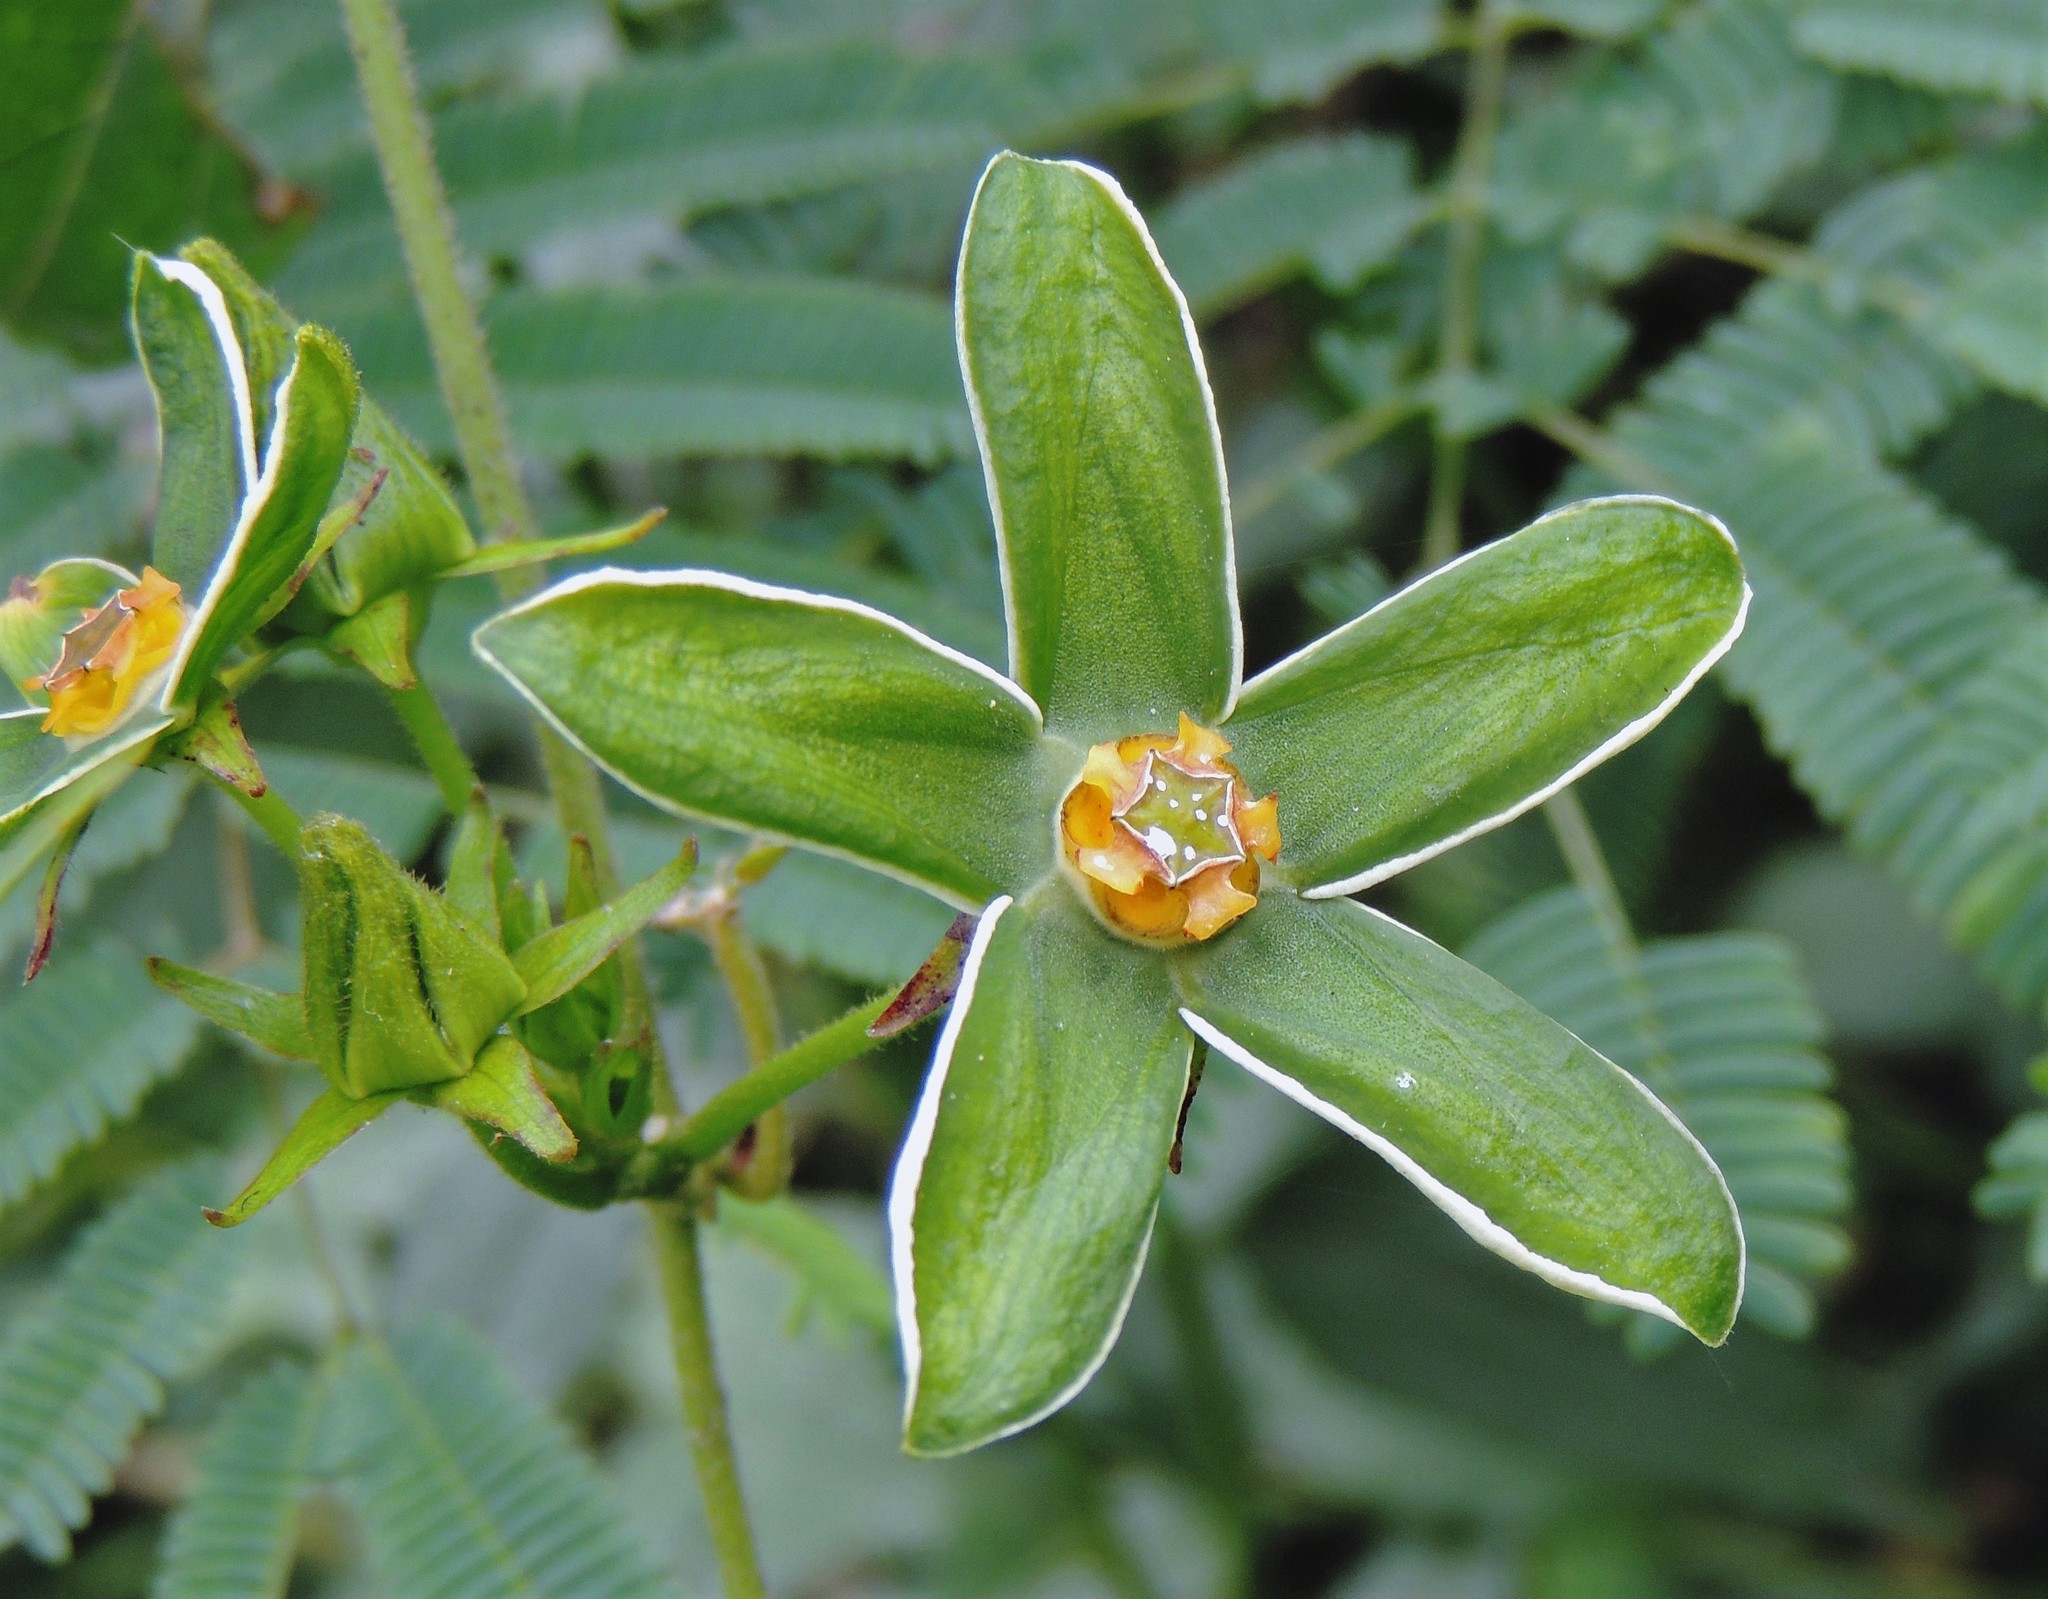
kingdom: Plantae
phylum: Tracheophyta
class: Magnoliopsida
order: Gentianales
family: Apocynaceae
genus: Gonolobus
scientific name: Gonolobus rostratus
